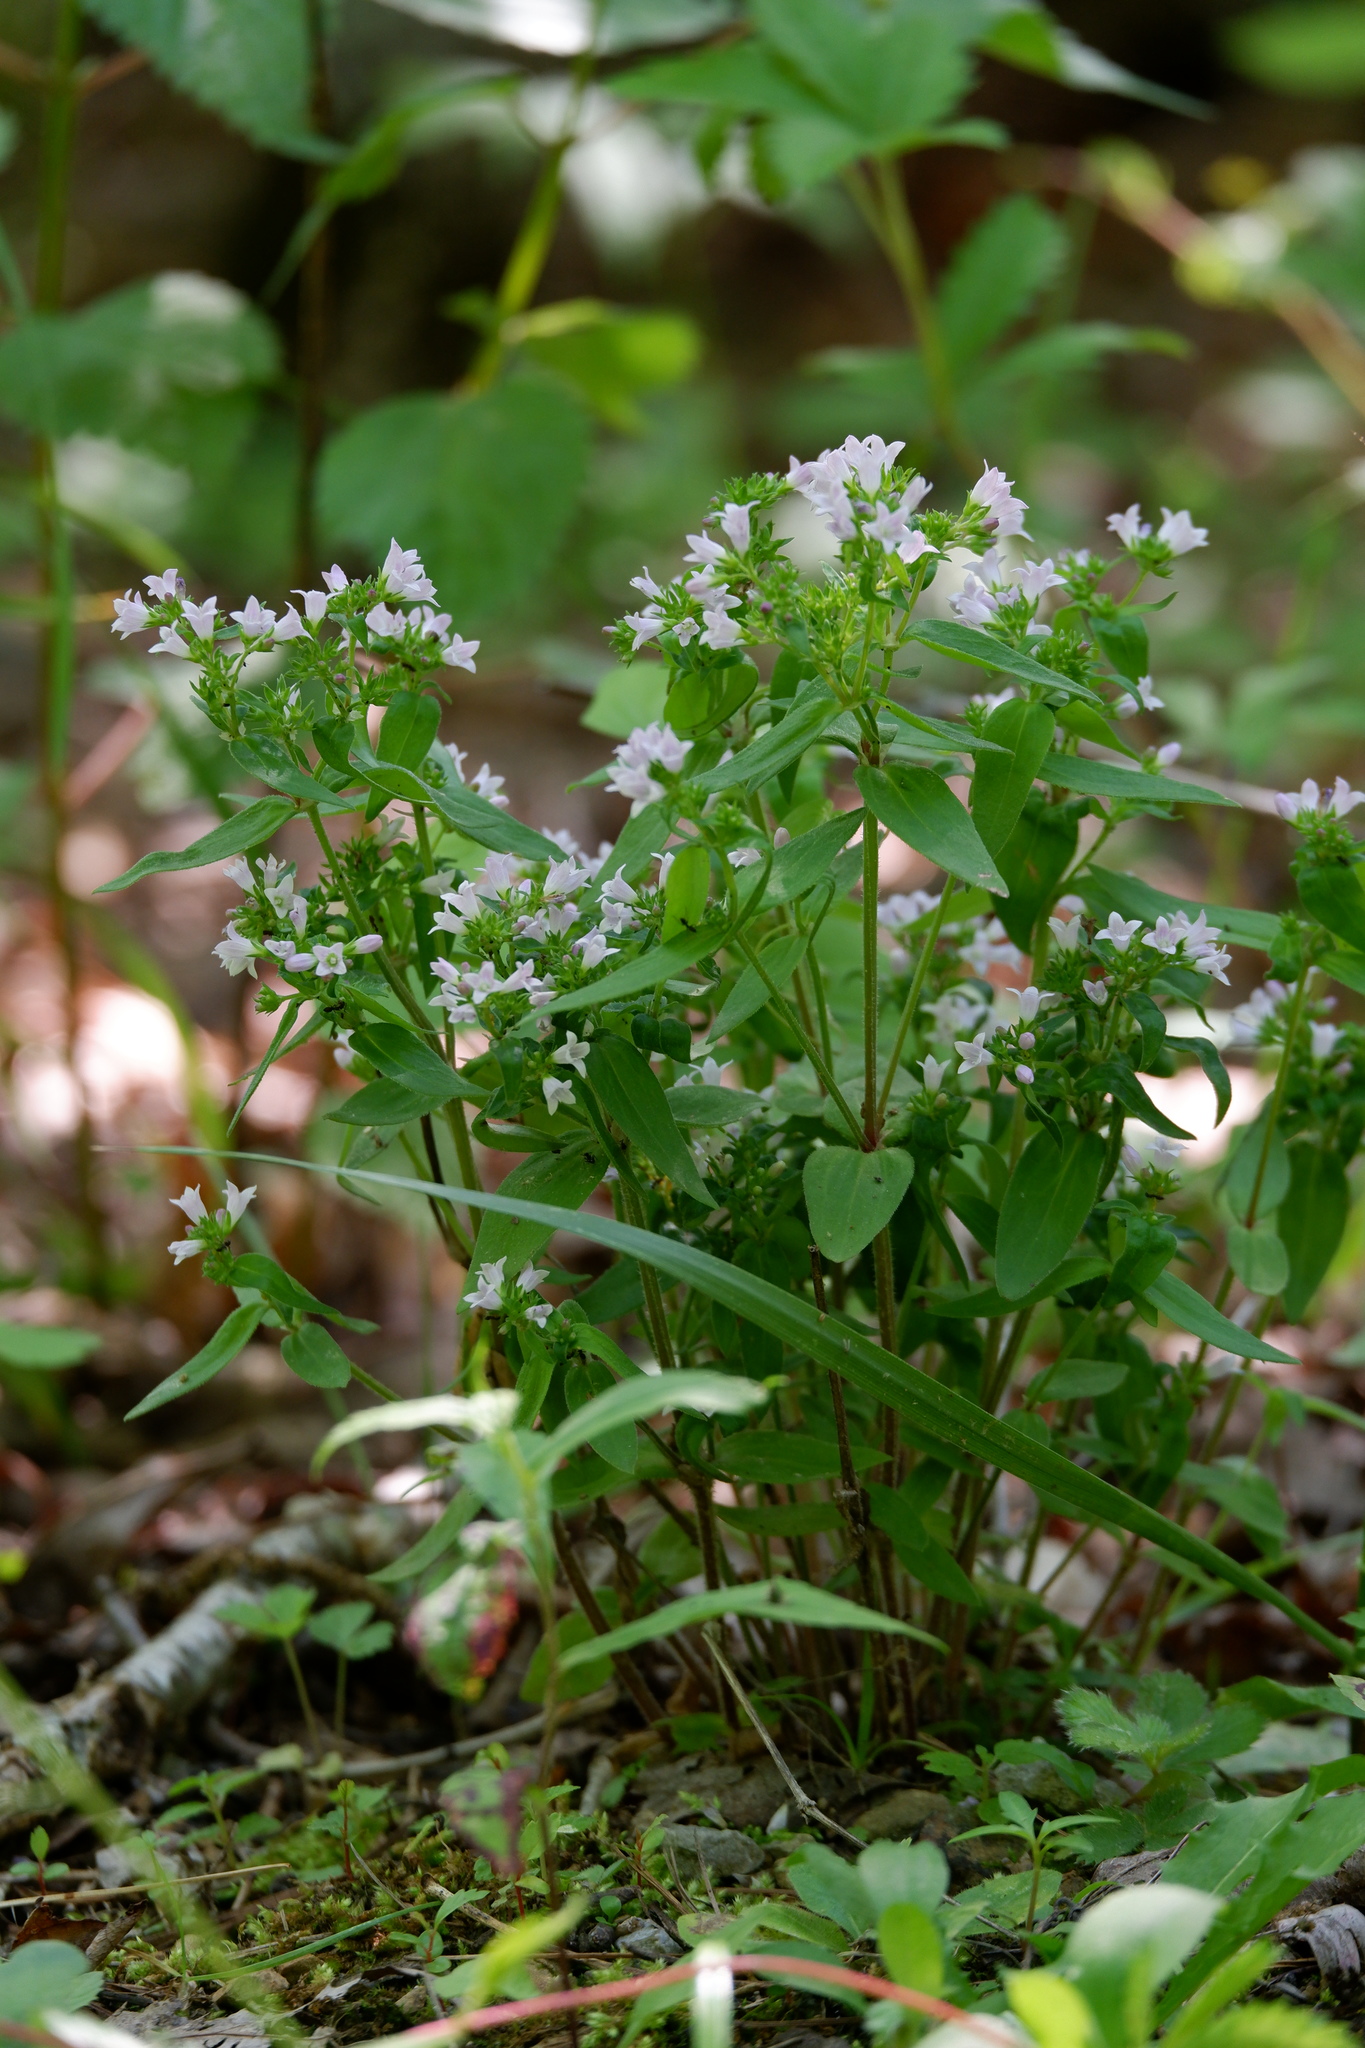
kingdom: Plantae
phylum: Tracheophyta
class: Magnoliopsida
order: Gentianales
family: Rubiaceae
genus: Houstonia
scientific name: Houstonia purpurea
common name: Summer bluet
